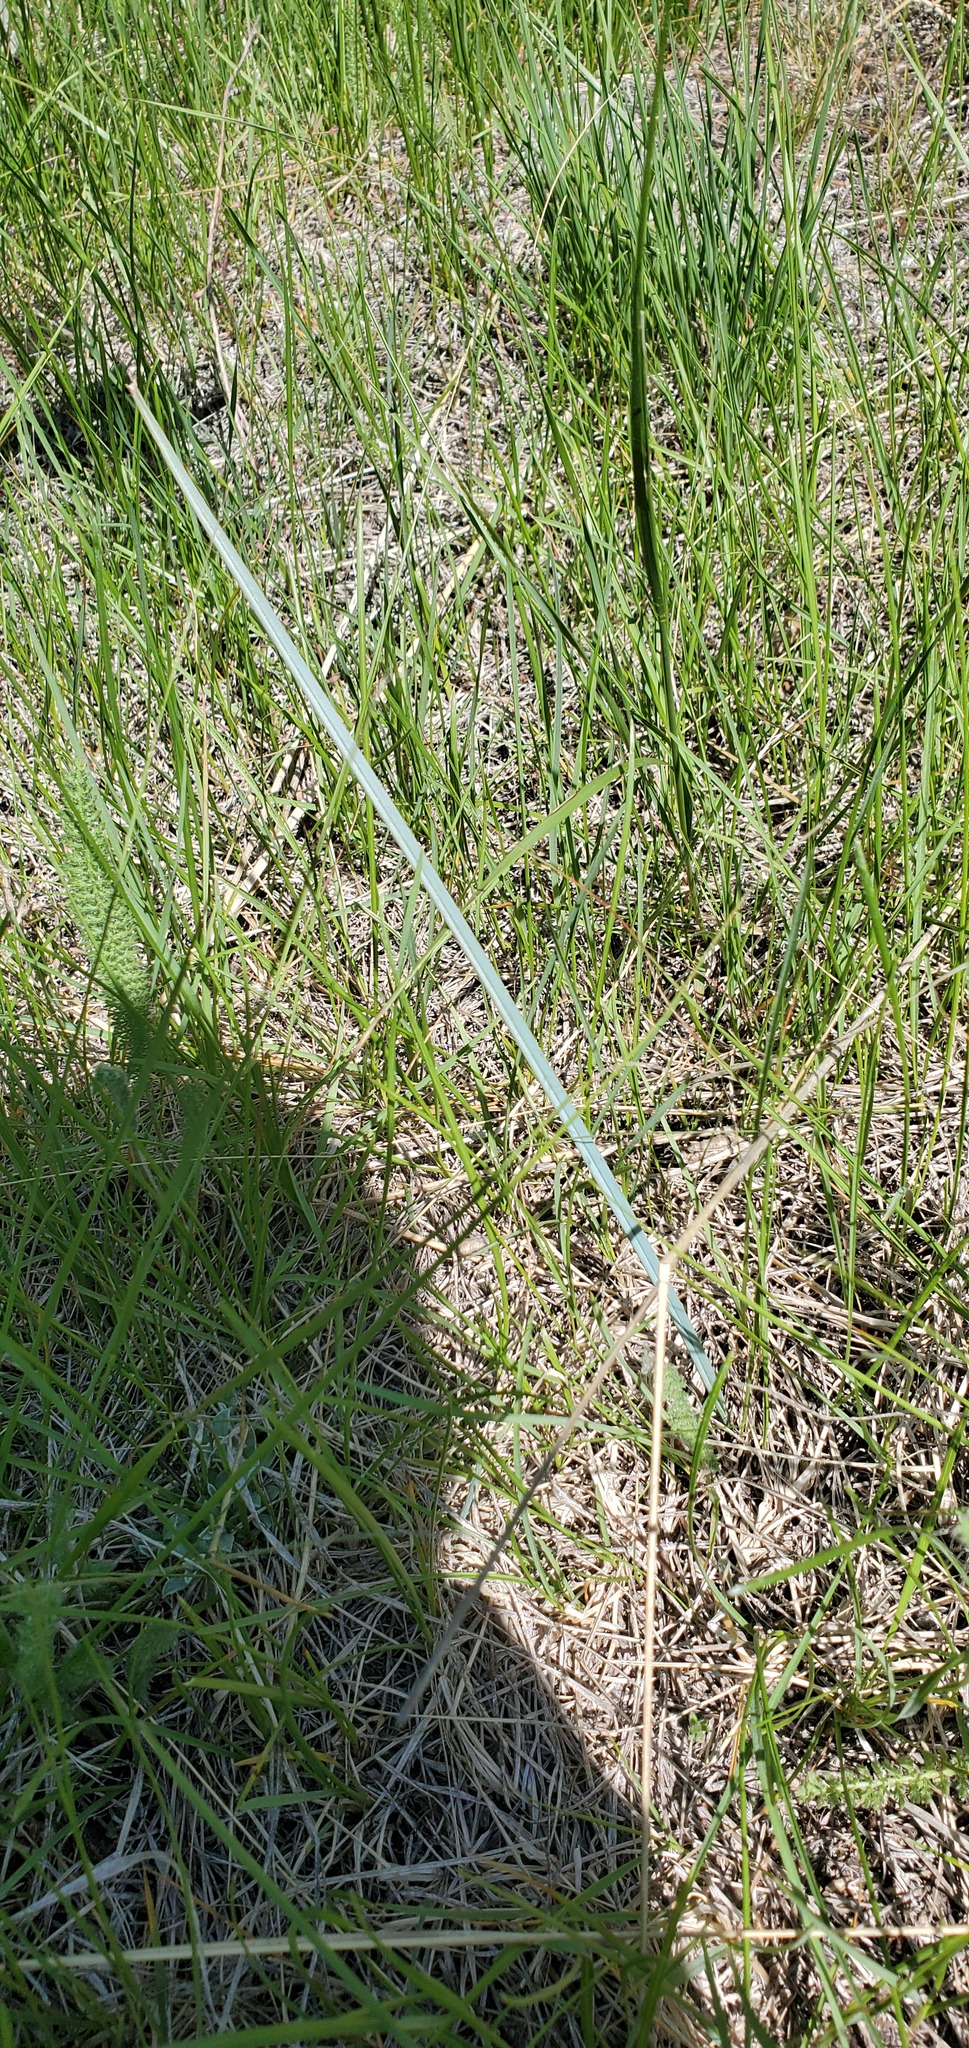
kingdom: Plantae
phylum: Tracheophyta
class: Liliopsida
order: Liliales
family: Liliaceae
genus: Calochortus
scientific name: Calochortus macrocarpus
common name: Green-band mariposa lily
